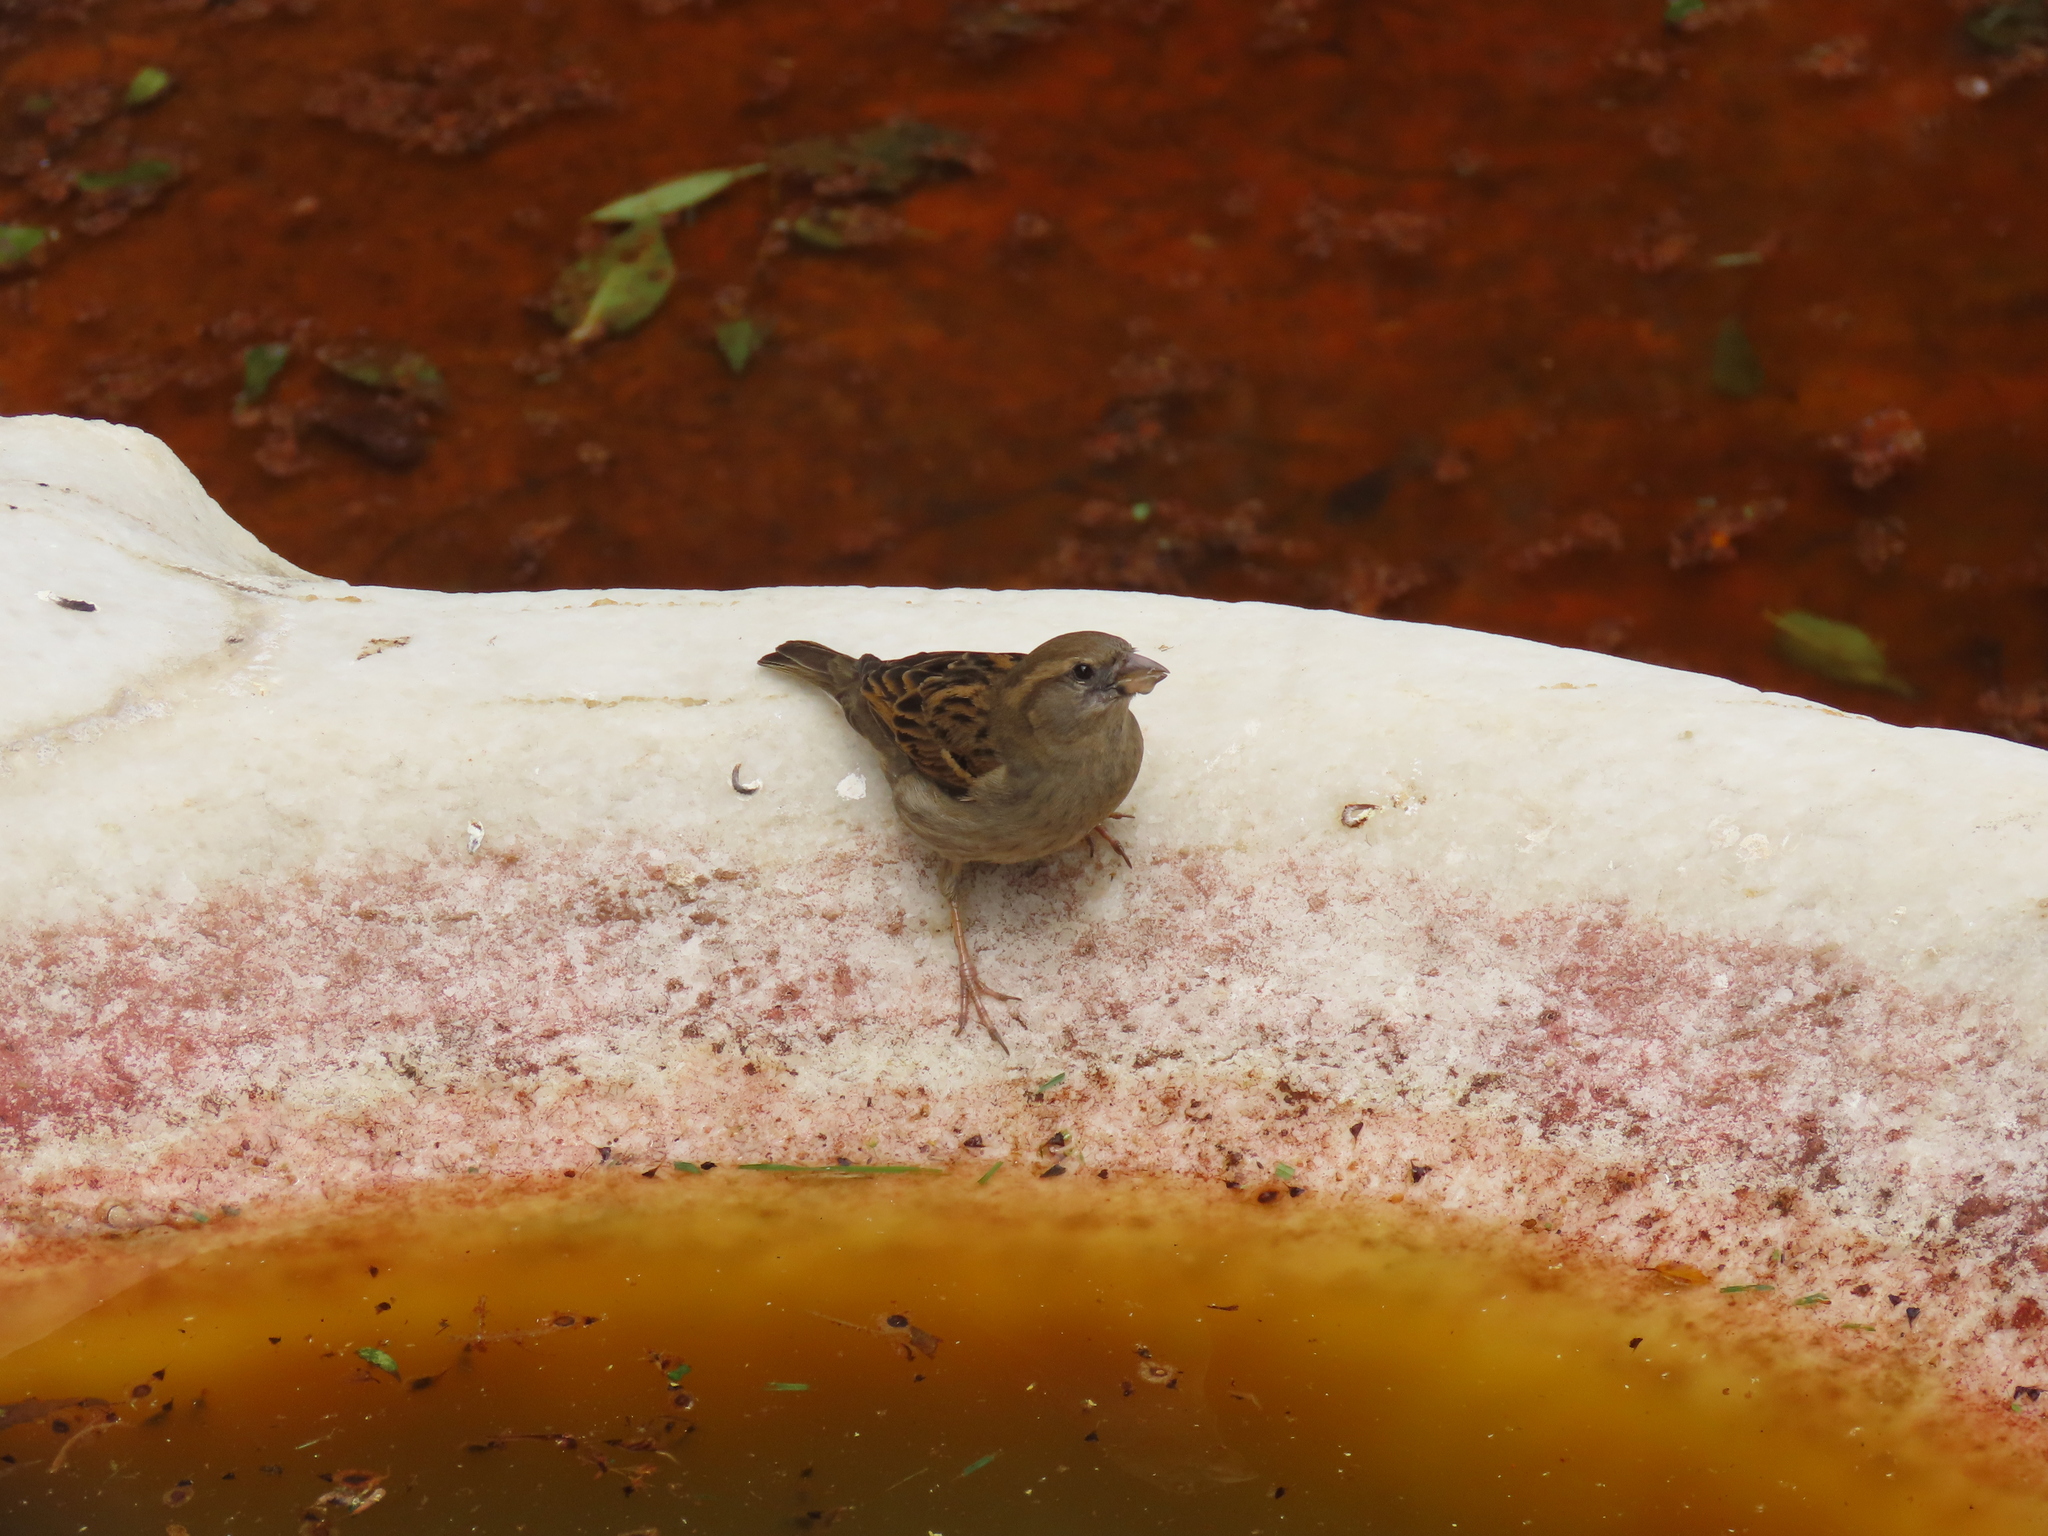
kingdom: Animalia
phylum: Chordata
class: Aves
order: Passeriformes
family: Passeridae
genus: Passer
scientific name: Passer domesticus
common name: House sparrow
